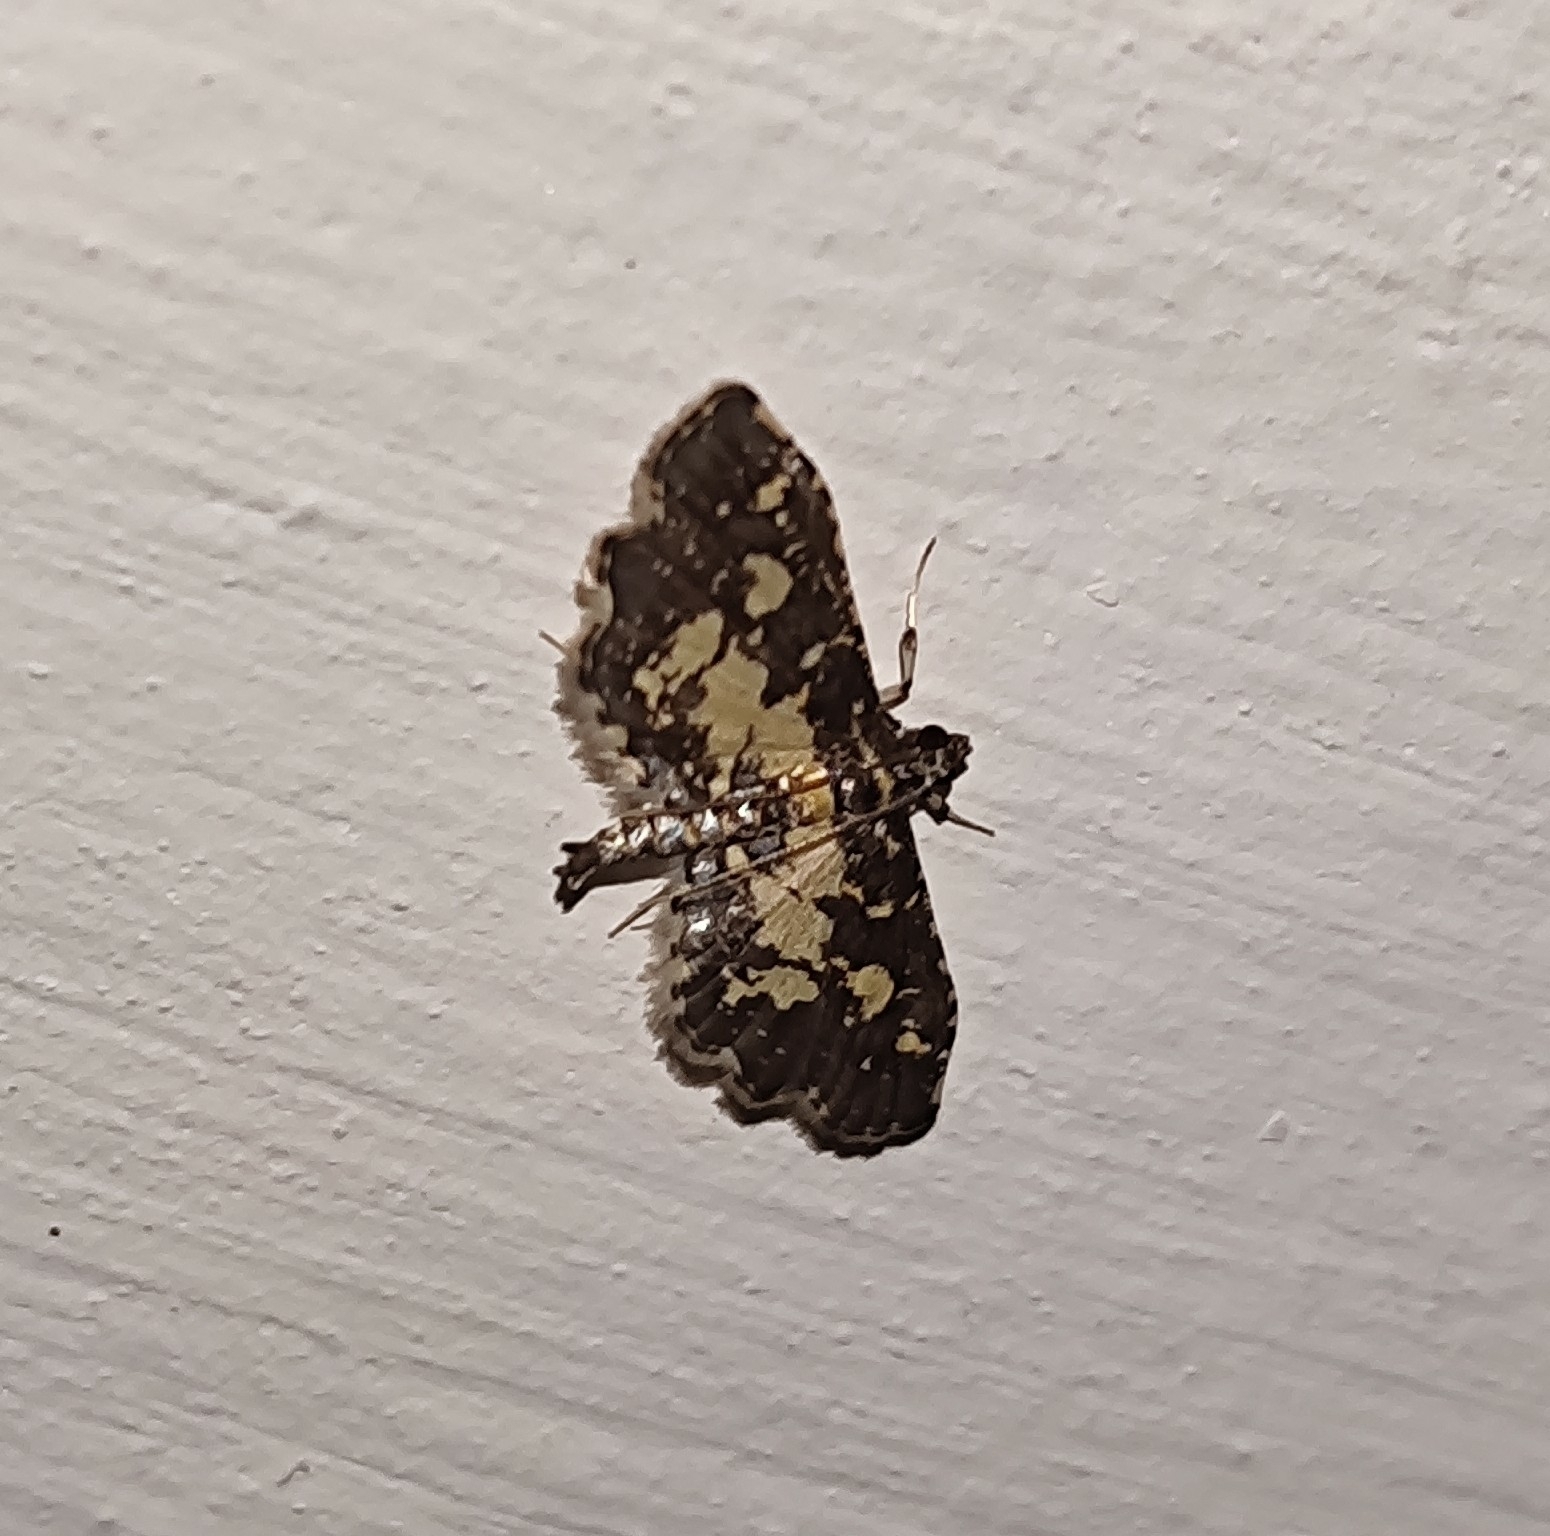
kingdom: Animalia
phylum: Arthropoda
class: Insecta
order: Lepidoptera
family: Crambidae
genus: Eurrhyparodes
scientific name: Eurrhyparodes bracteolalis
